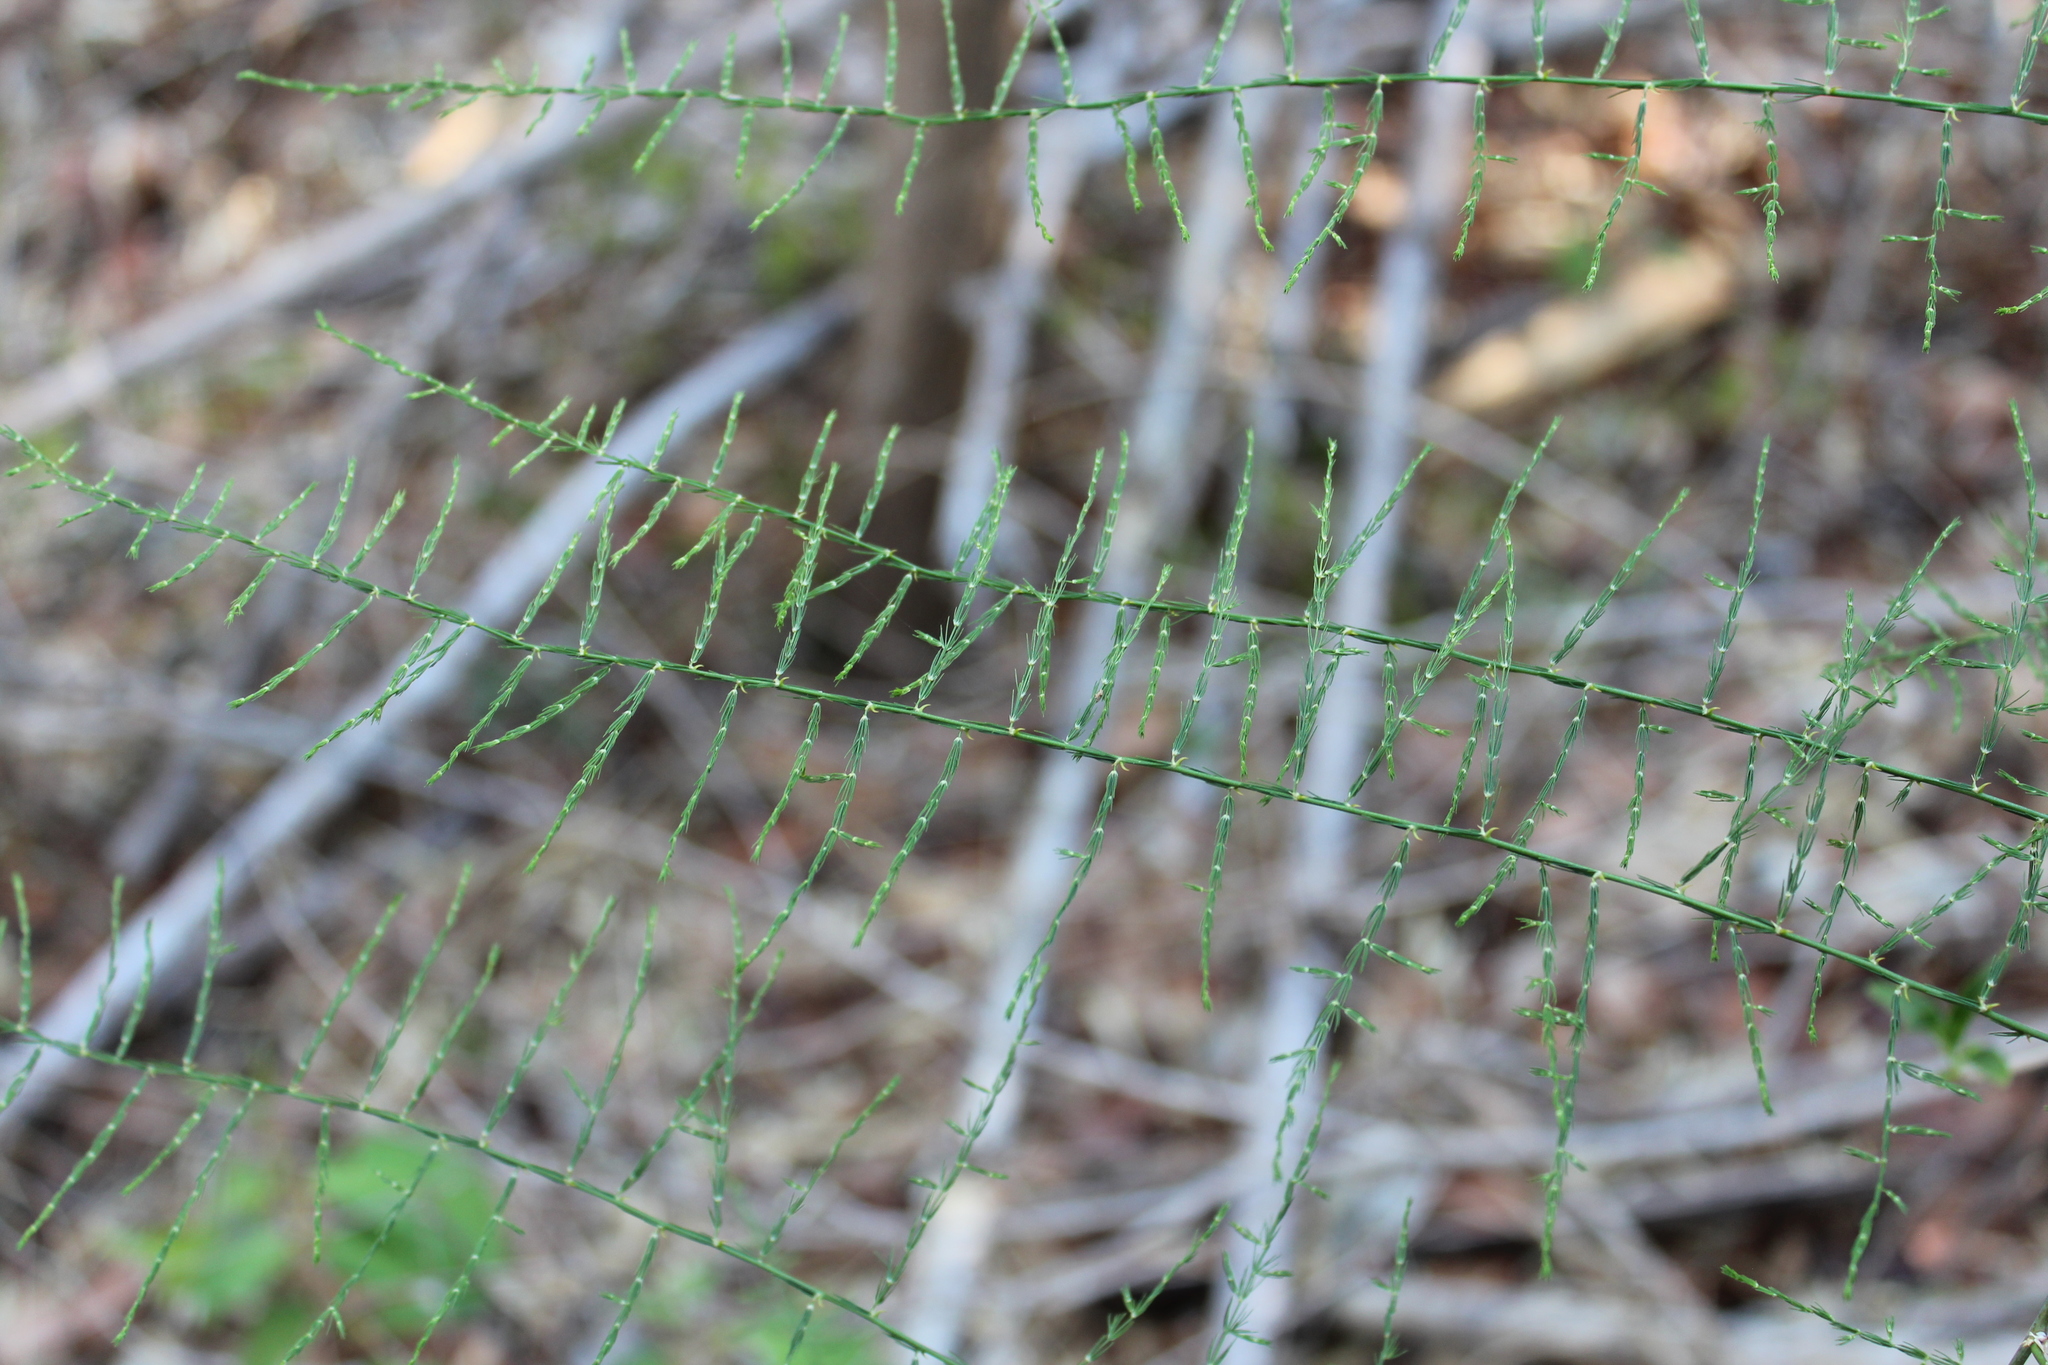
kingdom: Plantae
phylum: Tracheophyta
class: Liliopsida
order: Asparagales
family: Asparagaceae
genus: Asparagus
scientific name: Asparagus vaginellatus
